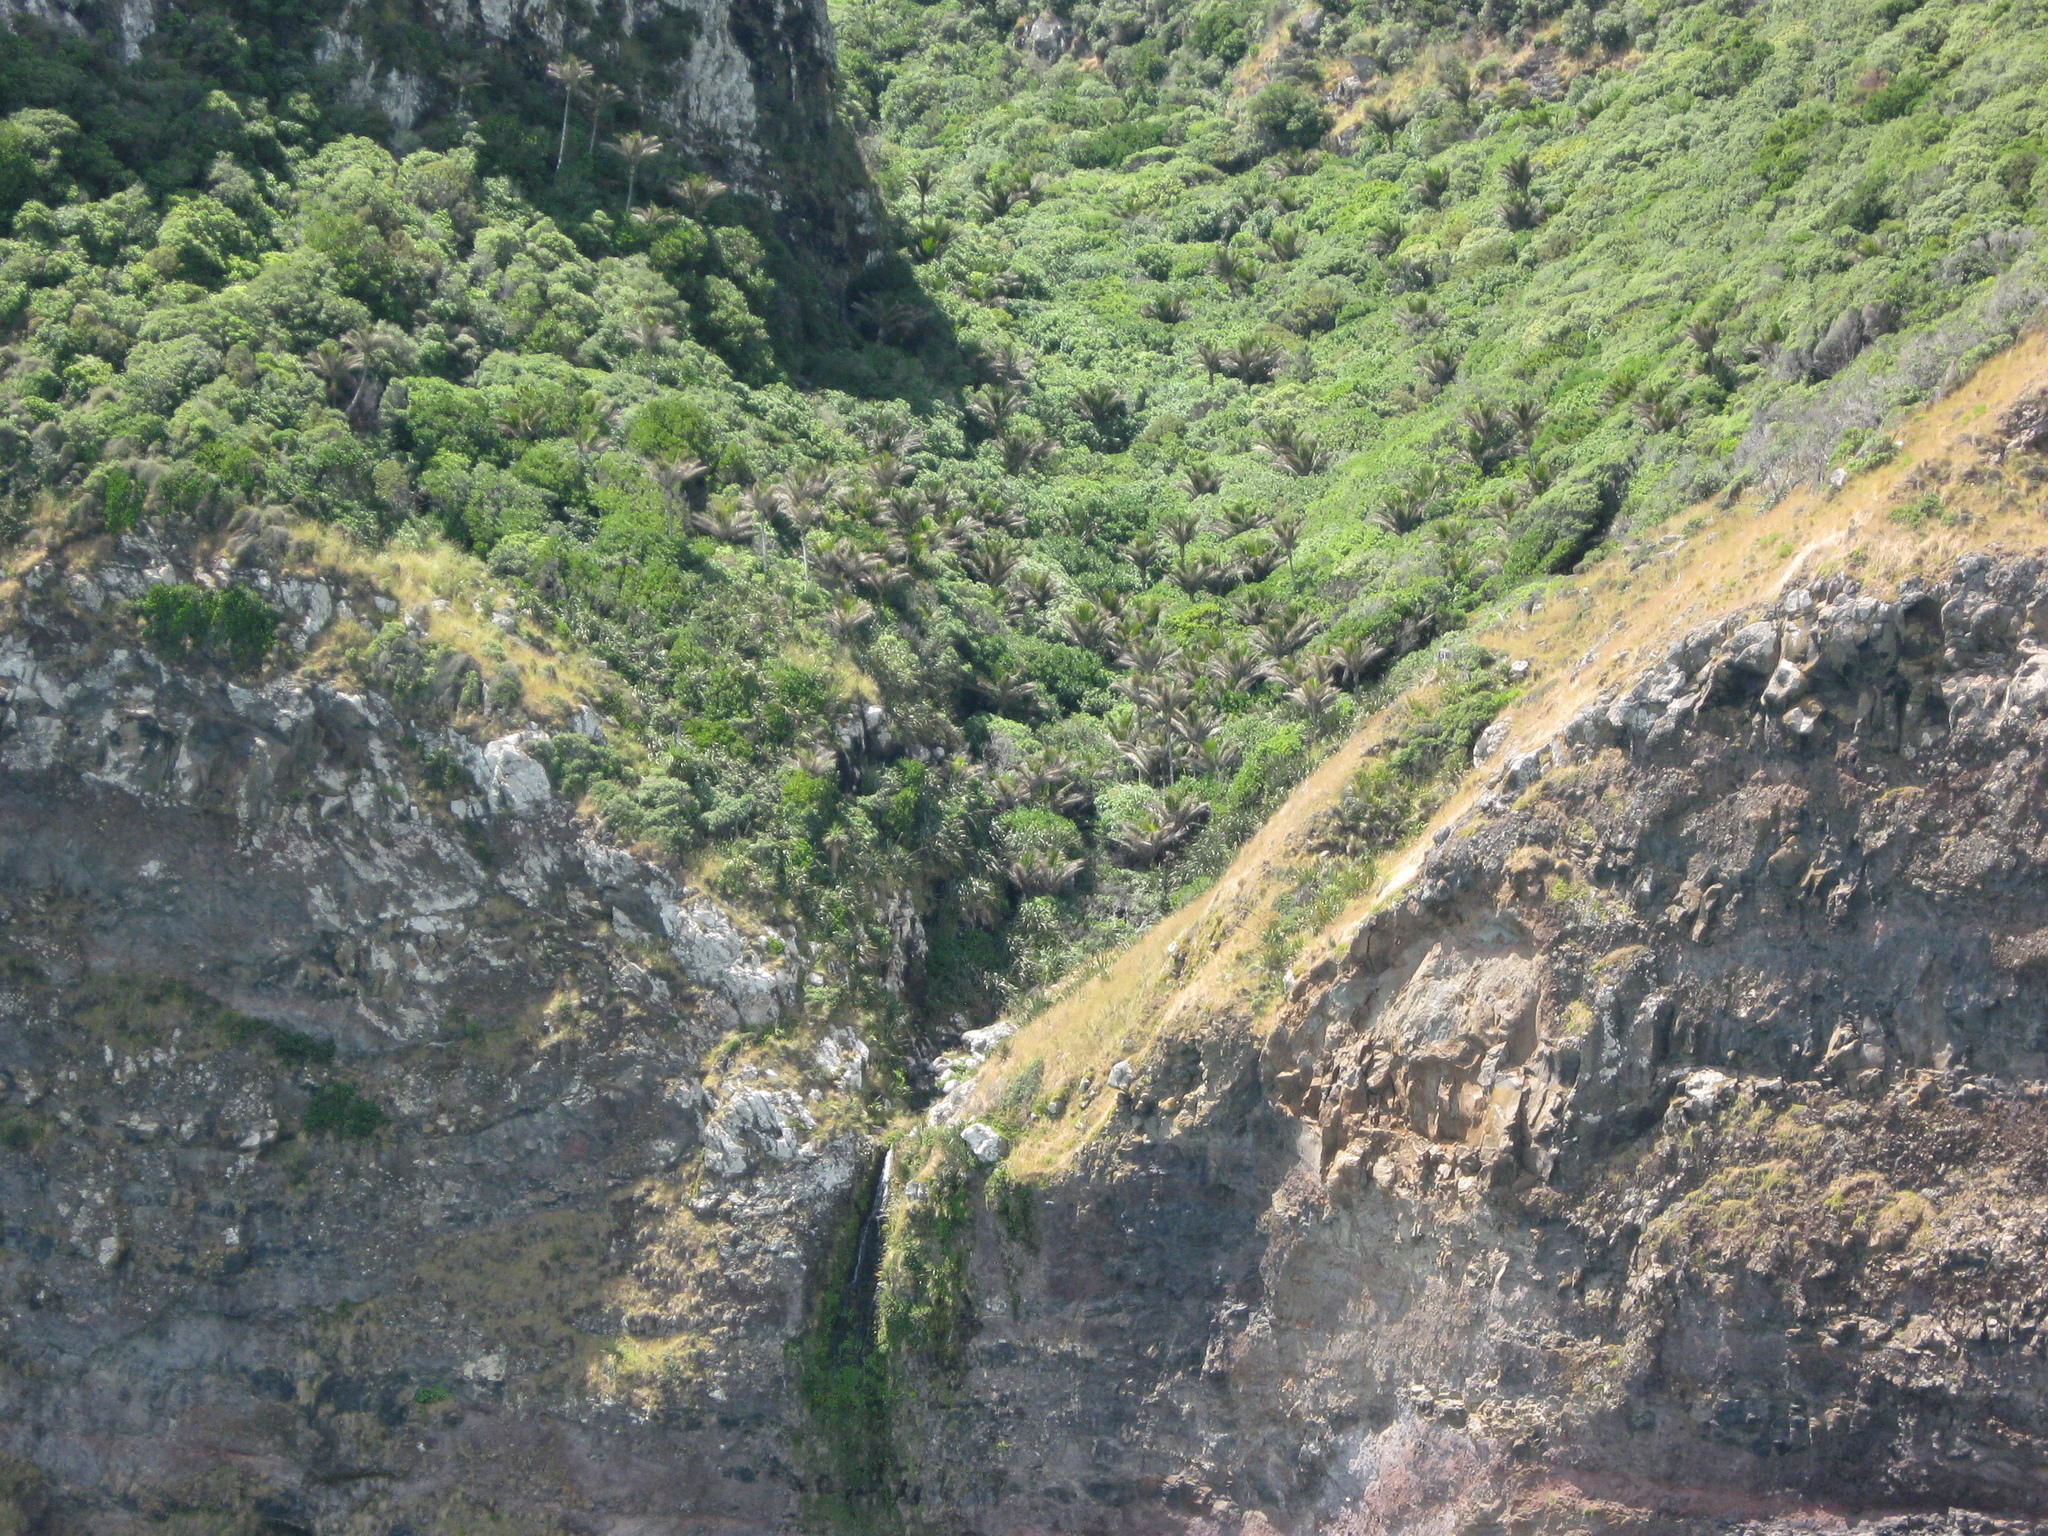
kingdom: Plantae
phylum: Tracheophyta
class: Liliopsida
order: Arecales
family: Arecaceae
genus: Rhopalostylis
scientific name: Rhopalostylis sapida
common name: Feather-duster palm
